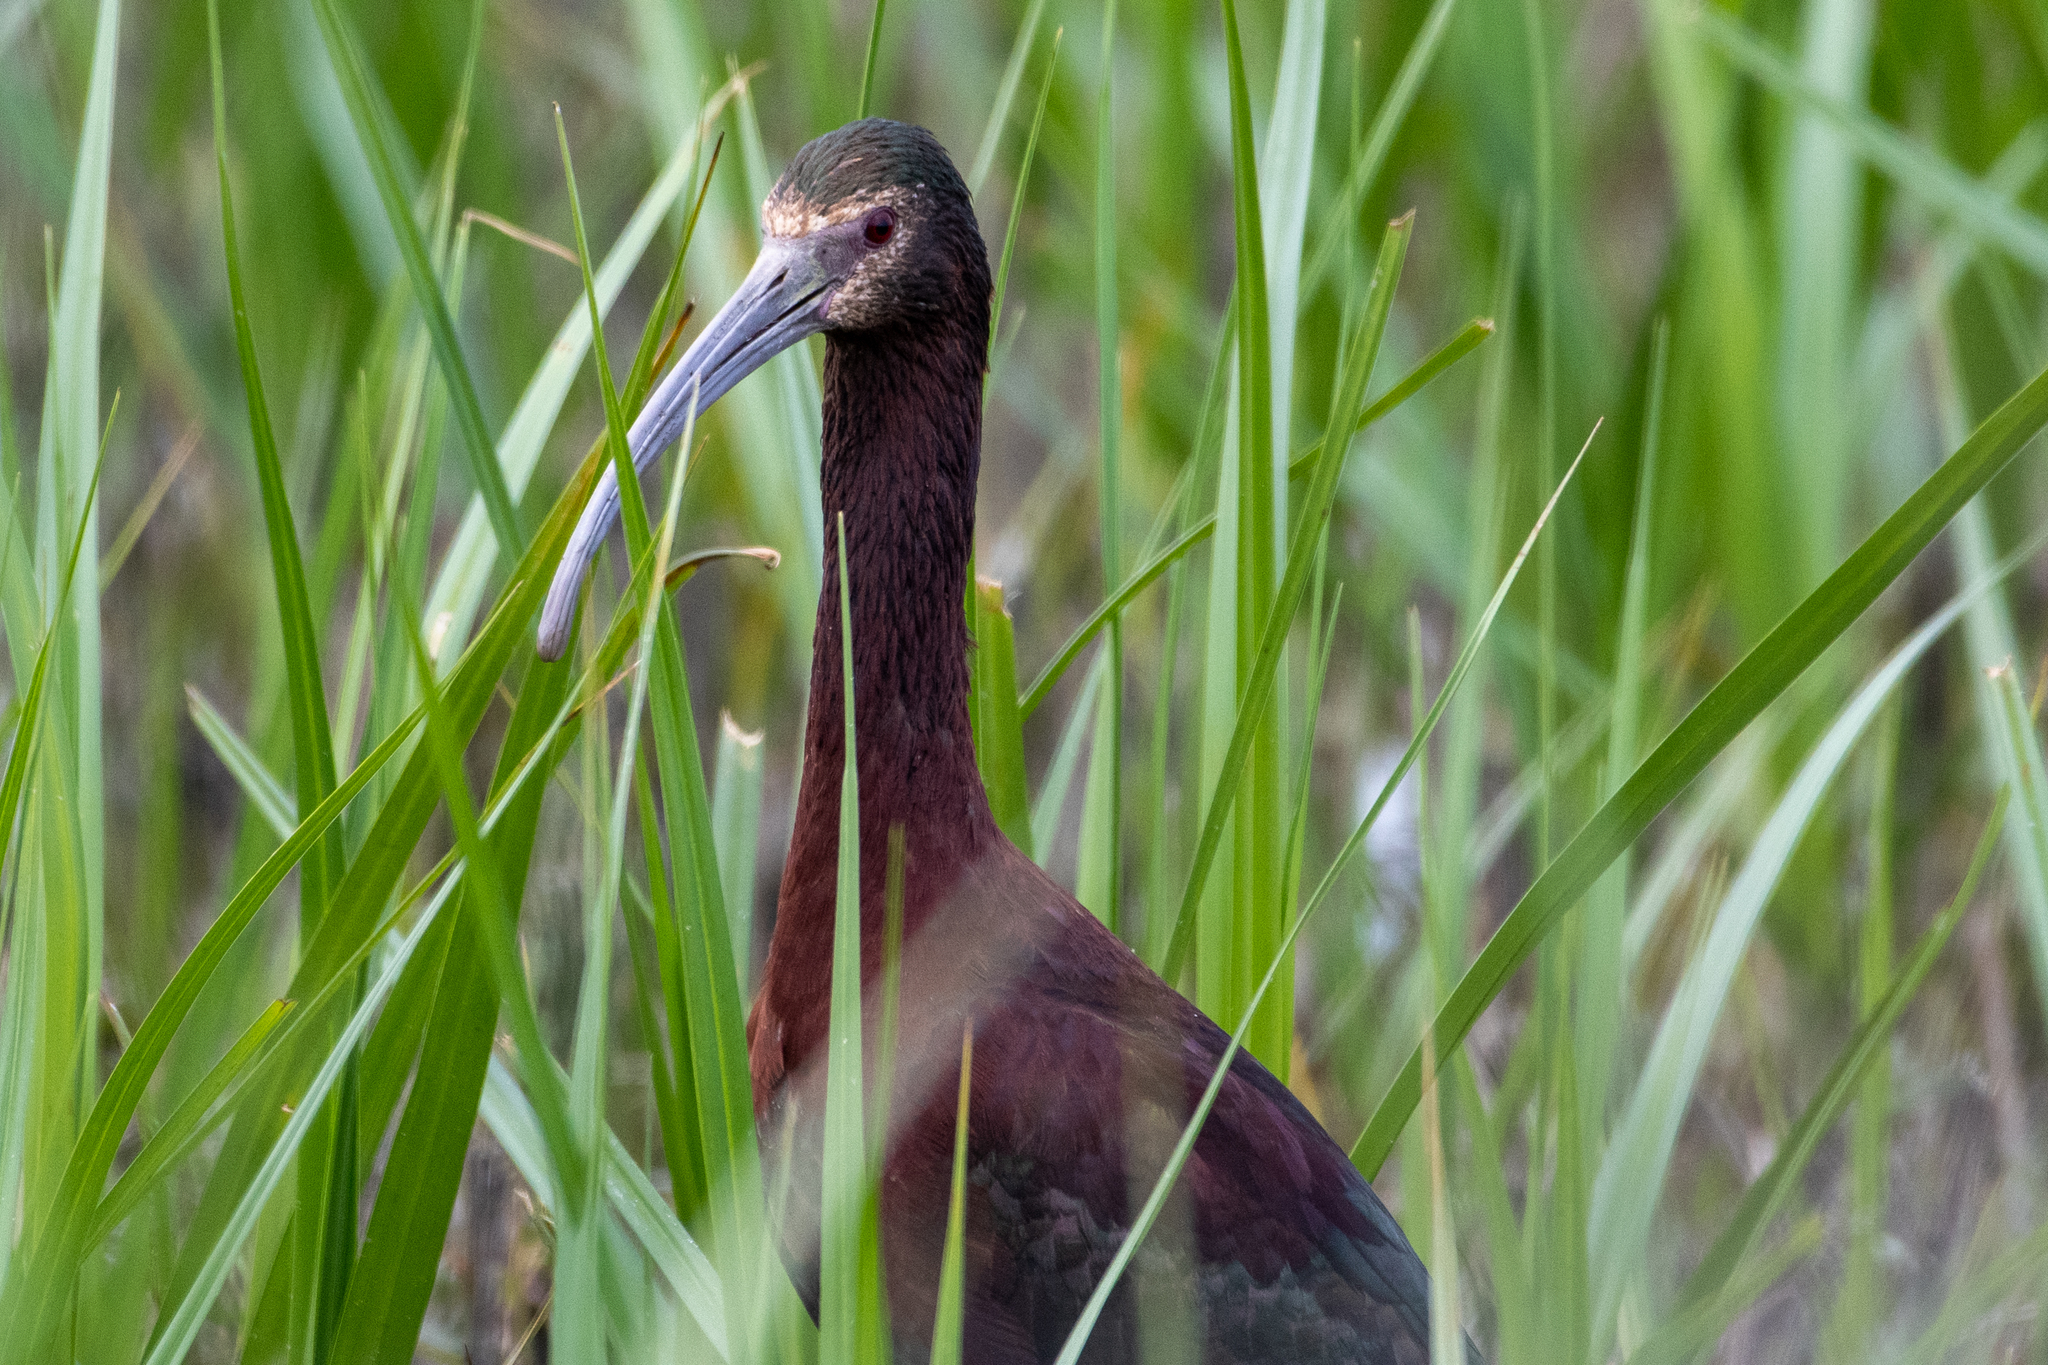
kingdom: Animalia
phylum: Chordata
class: Aves
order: Pelecaniformes
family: Threskiornithidae
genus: Plegadis
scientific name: Plegadis chihi
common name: White-faced ibis
